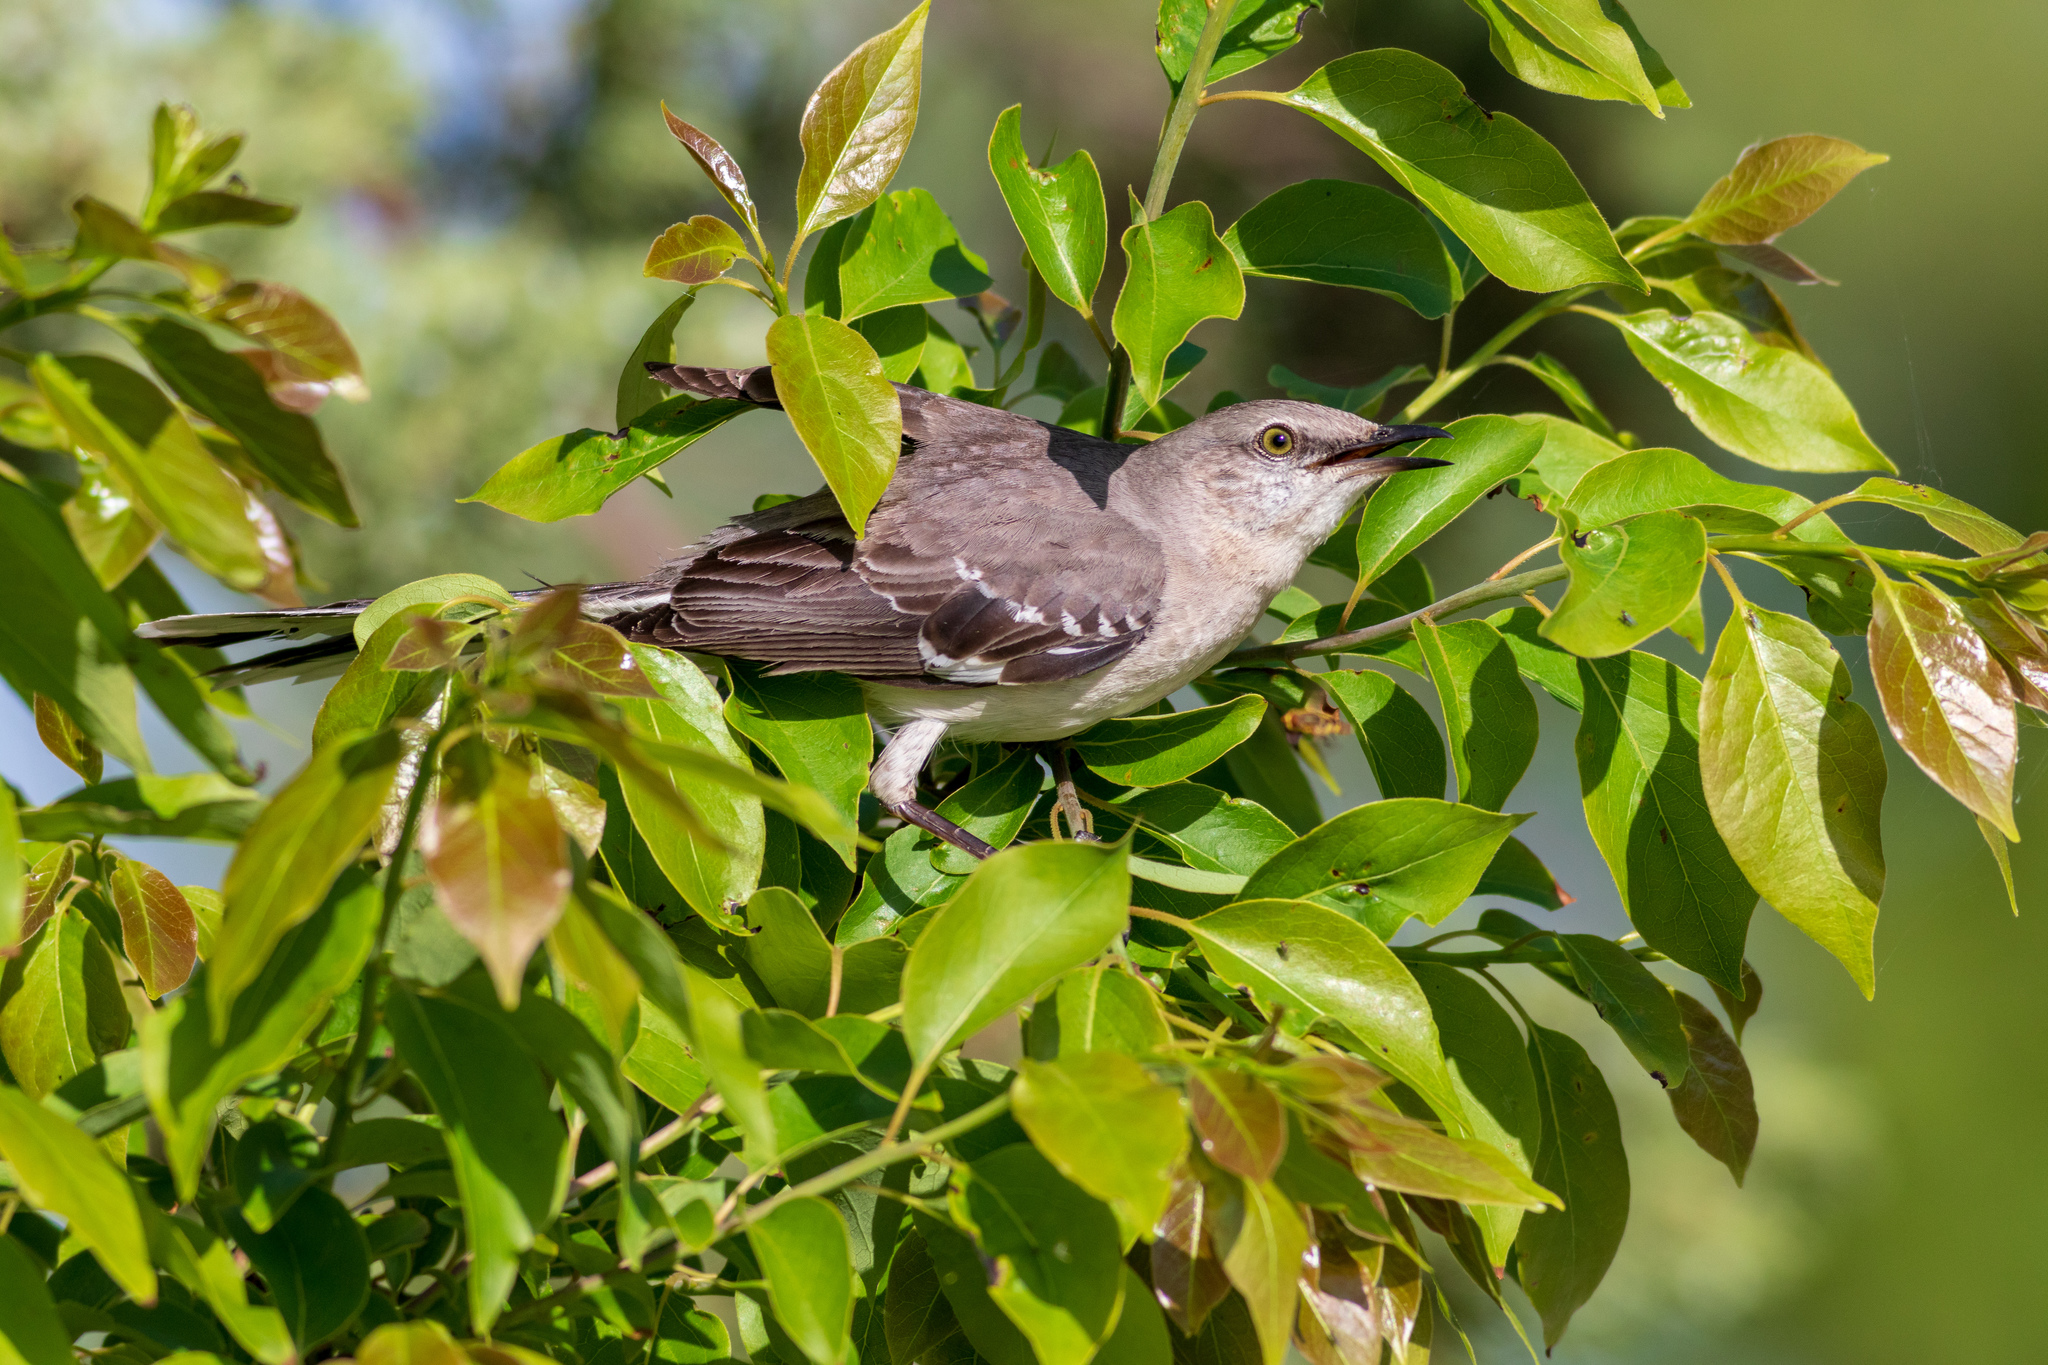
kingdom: Animalia
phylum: Chordata
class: Aves
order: Passeriformes
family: Mimidae
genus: Mimus
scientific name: Mimus polyglottos
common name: Northern mockingbird
